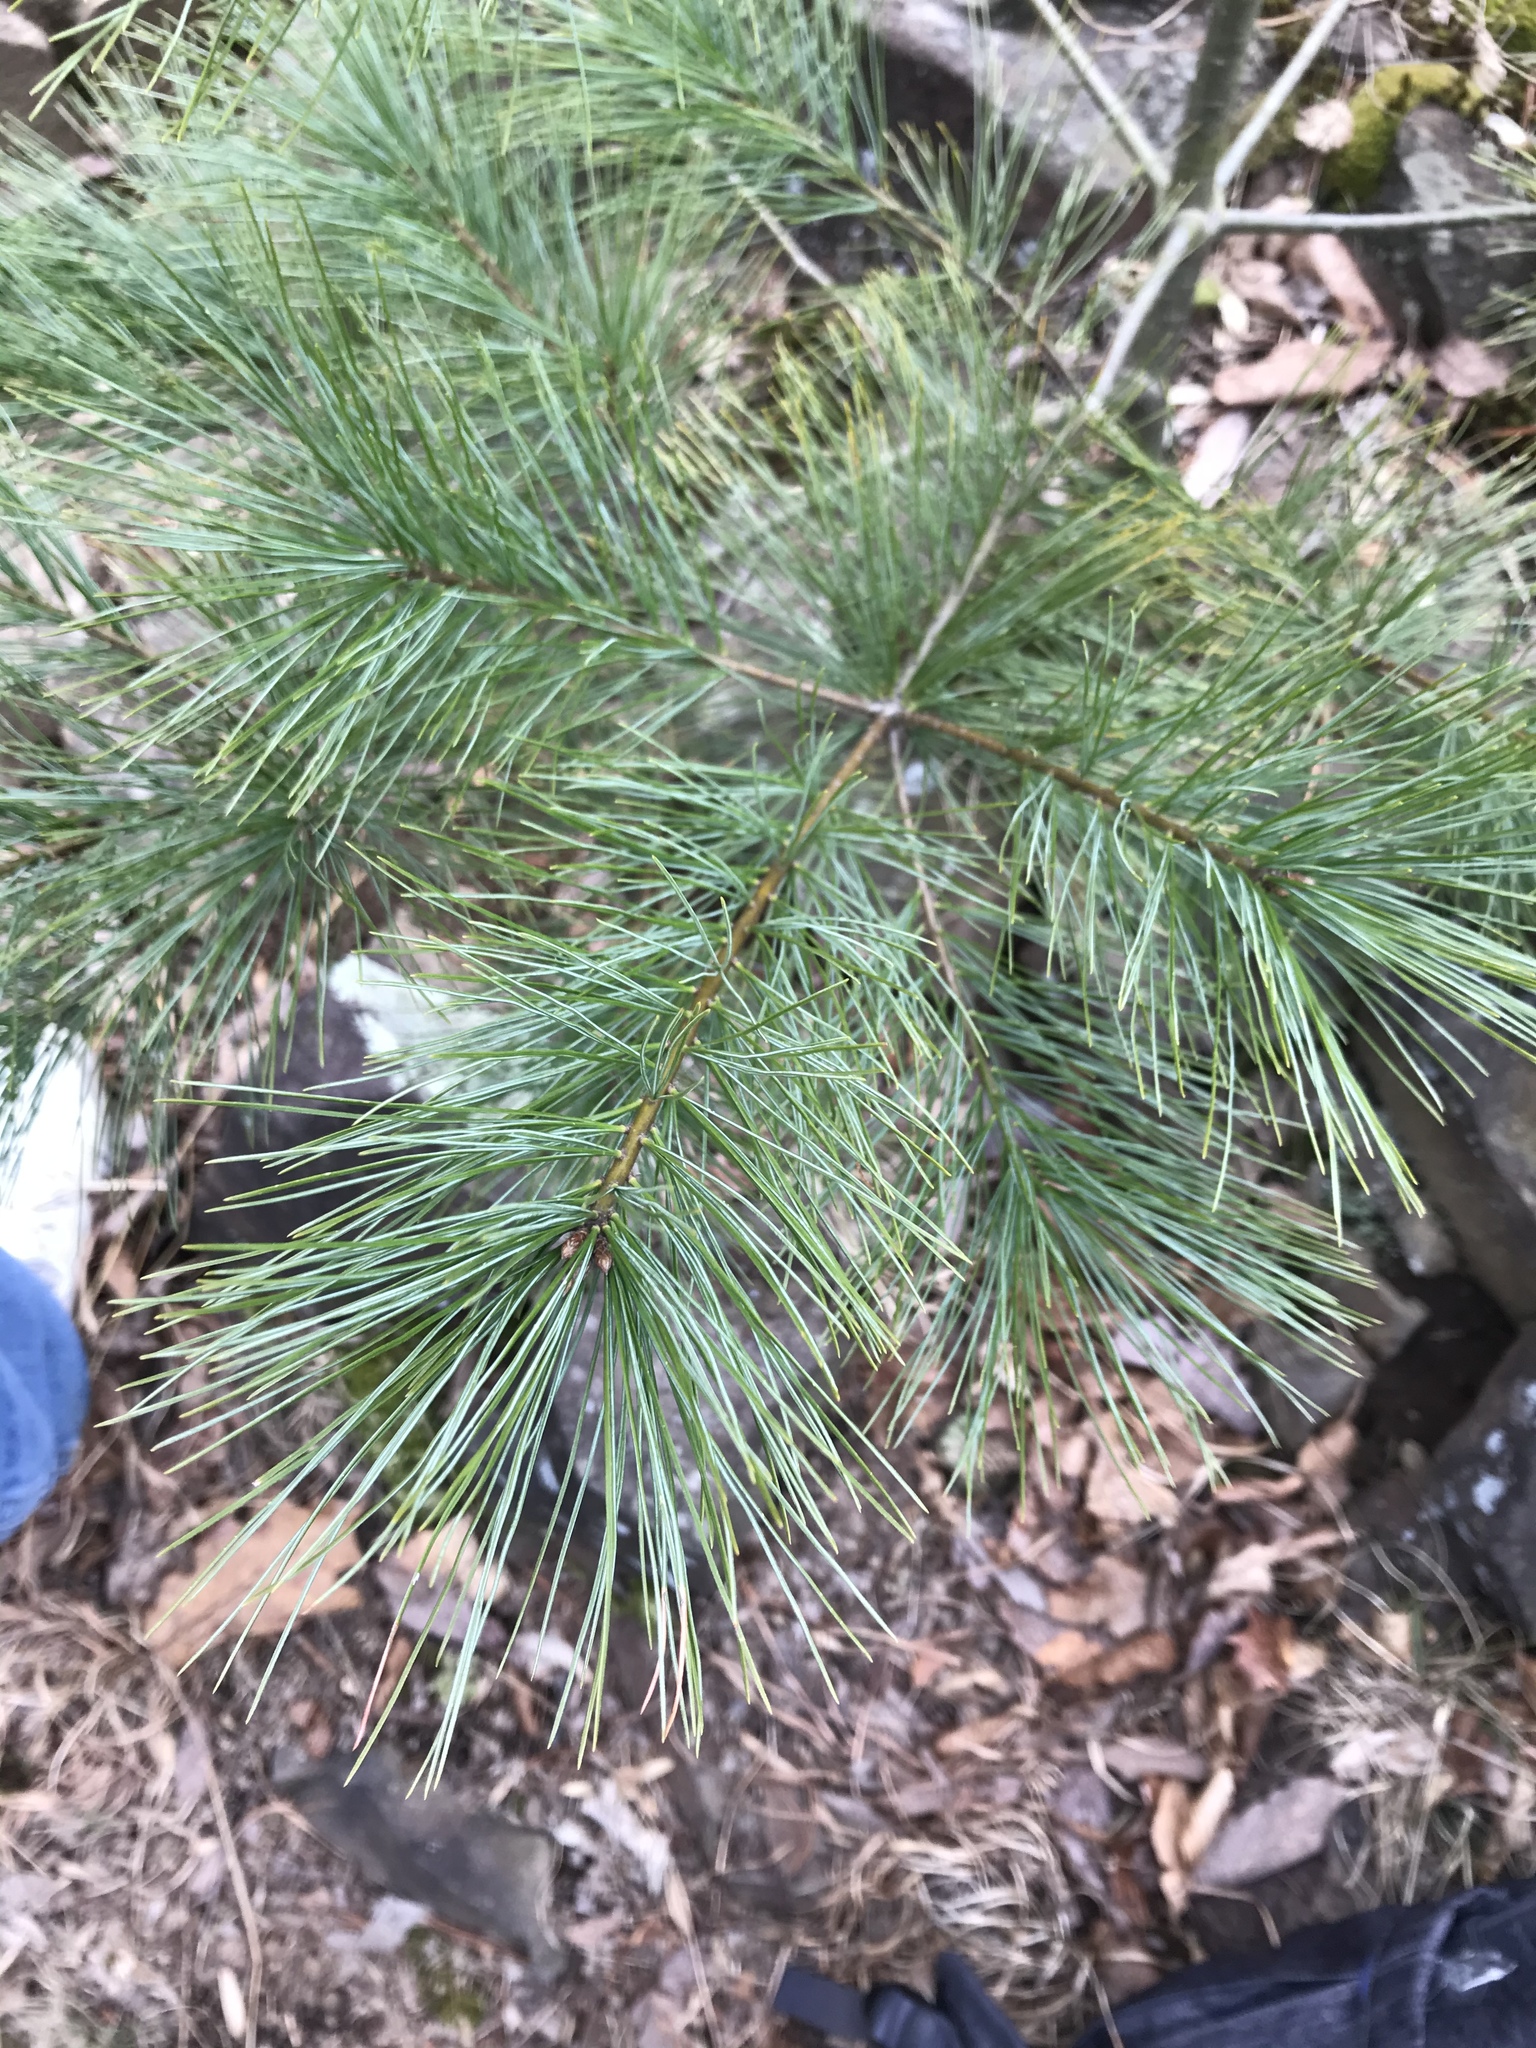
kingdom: Plantae
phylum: Tracheophyta
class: Pinopsida
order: Pinales
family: Pinaceae
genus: Pinus
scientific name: Pinus strobus
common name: Weymouth pine
